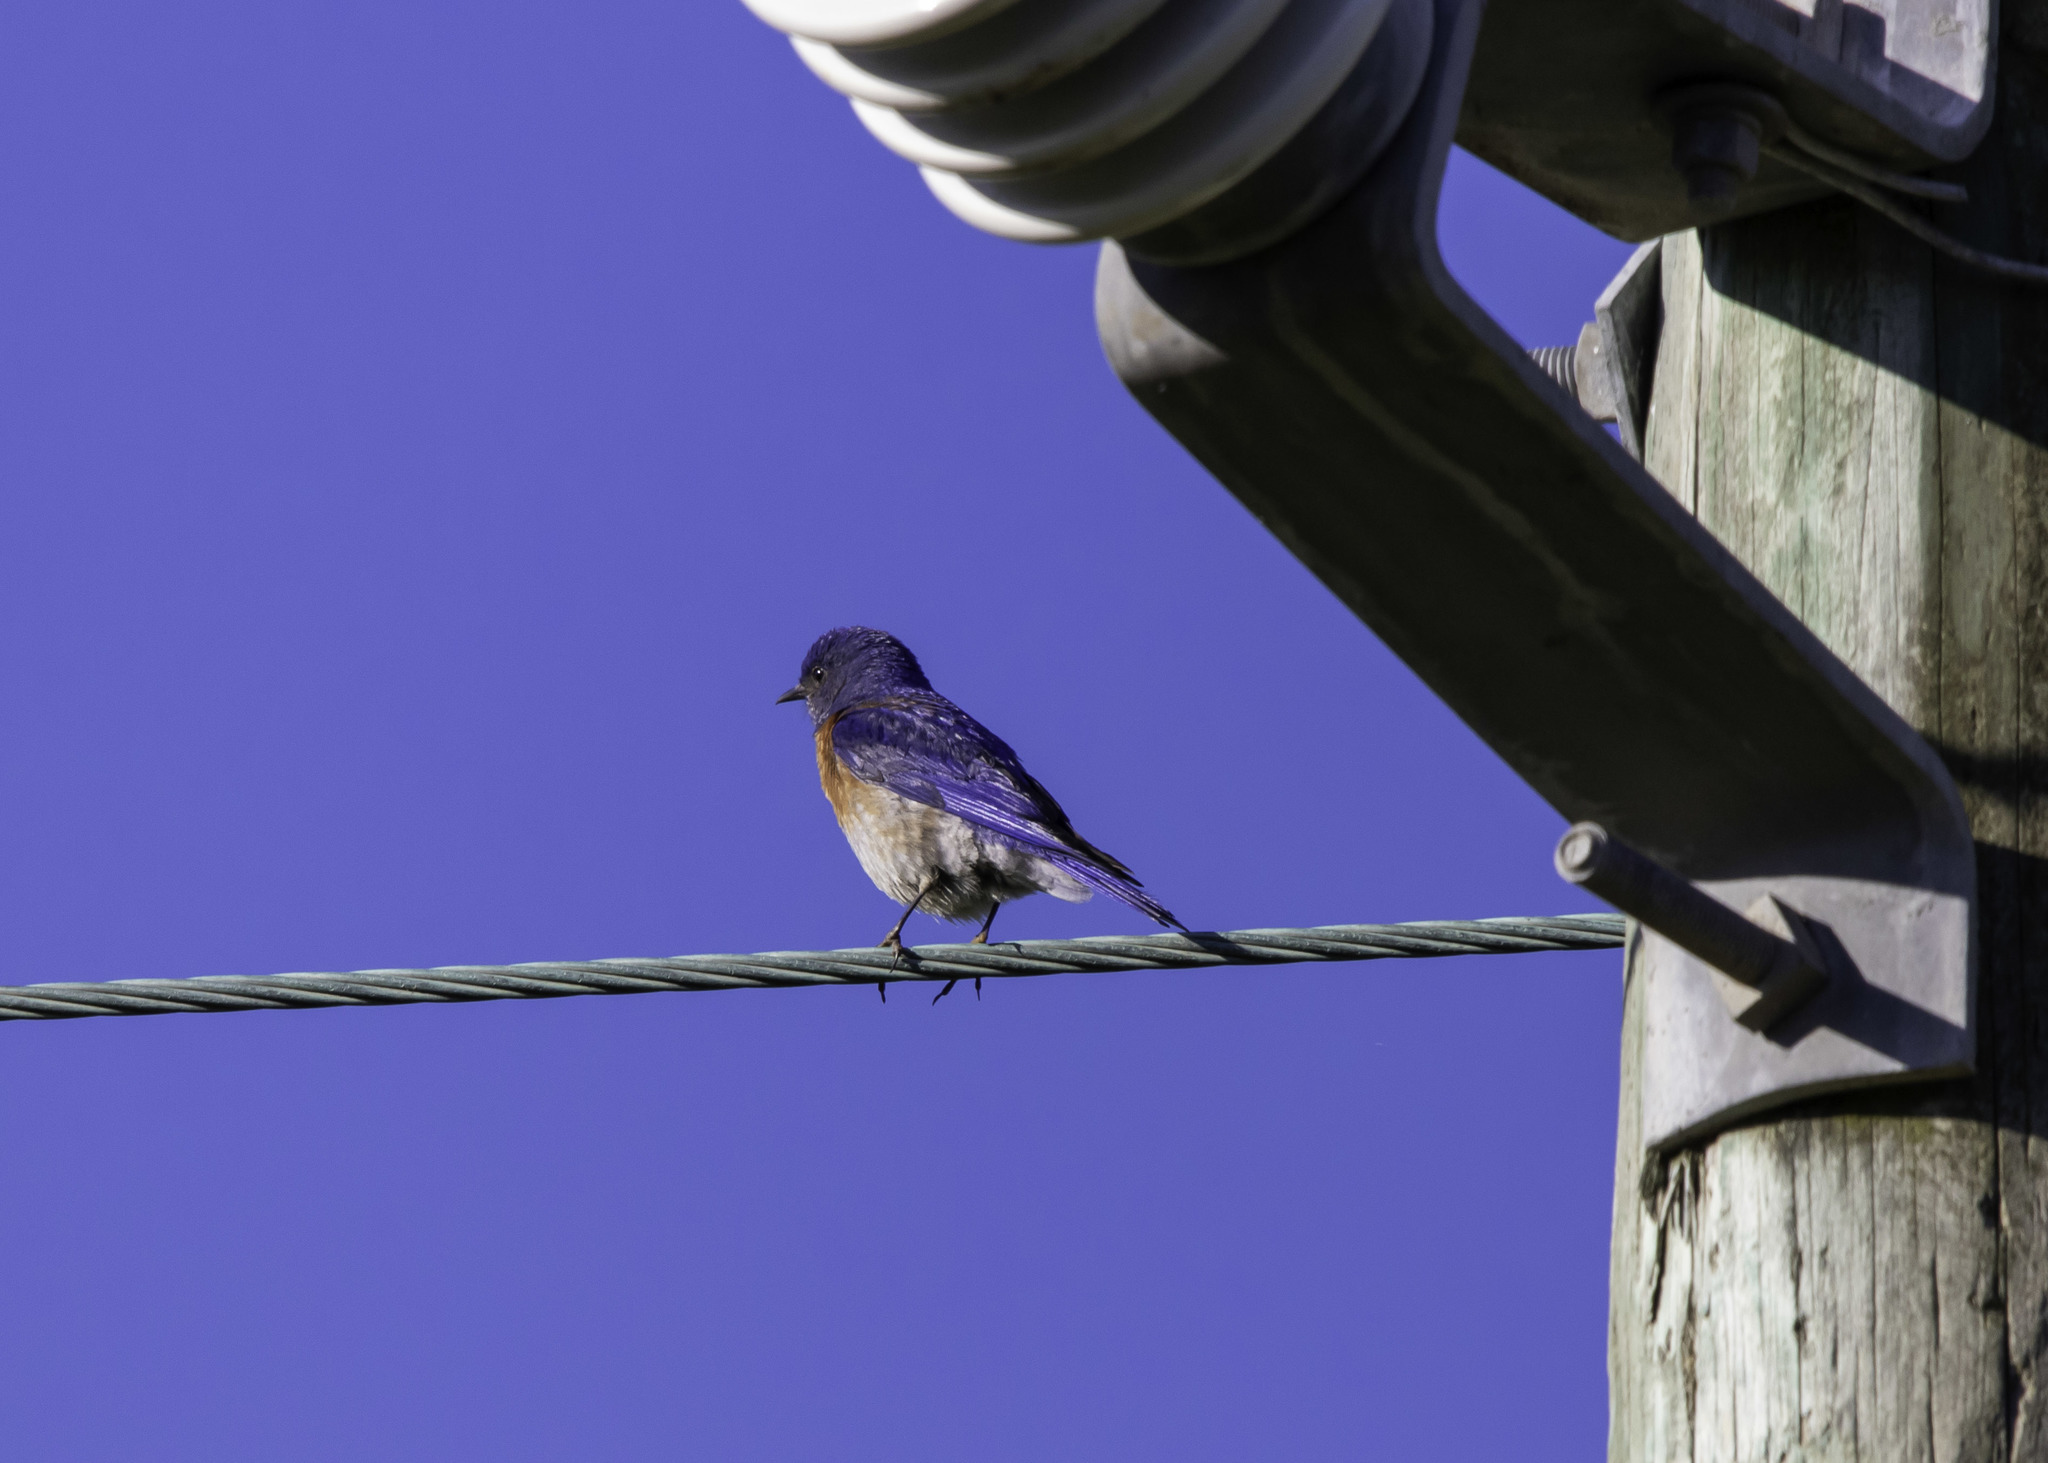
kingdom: Animalia
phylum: Chordata
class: Aves
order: Passeriformes
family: Turdidae
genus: Sialia
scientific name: Sialia mexicana
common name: Western bluebird
